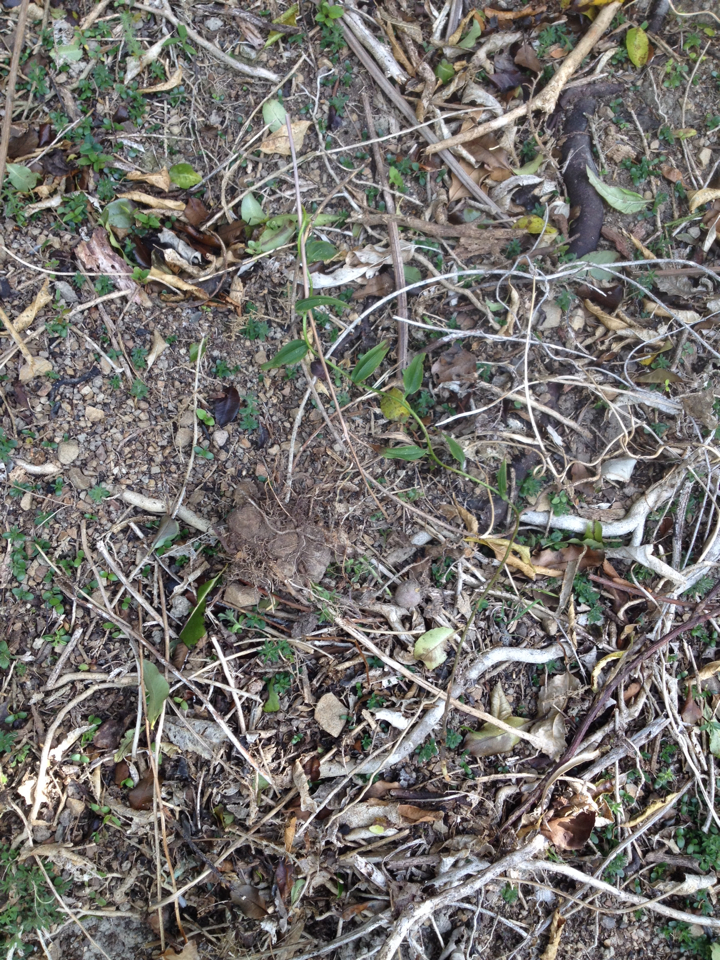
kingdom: Plantae
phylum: Tracheophyta
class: Liliopsida
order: Liliales
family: Alstroemeriaceae
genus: Bomarea
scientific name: Bomarea multiflora
